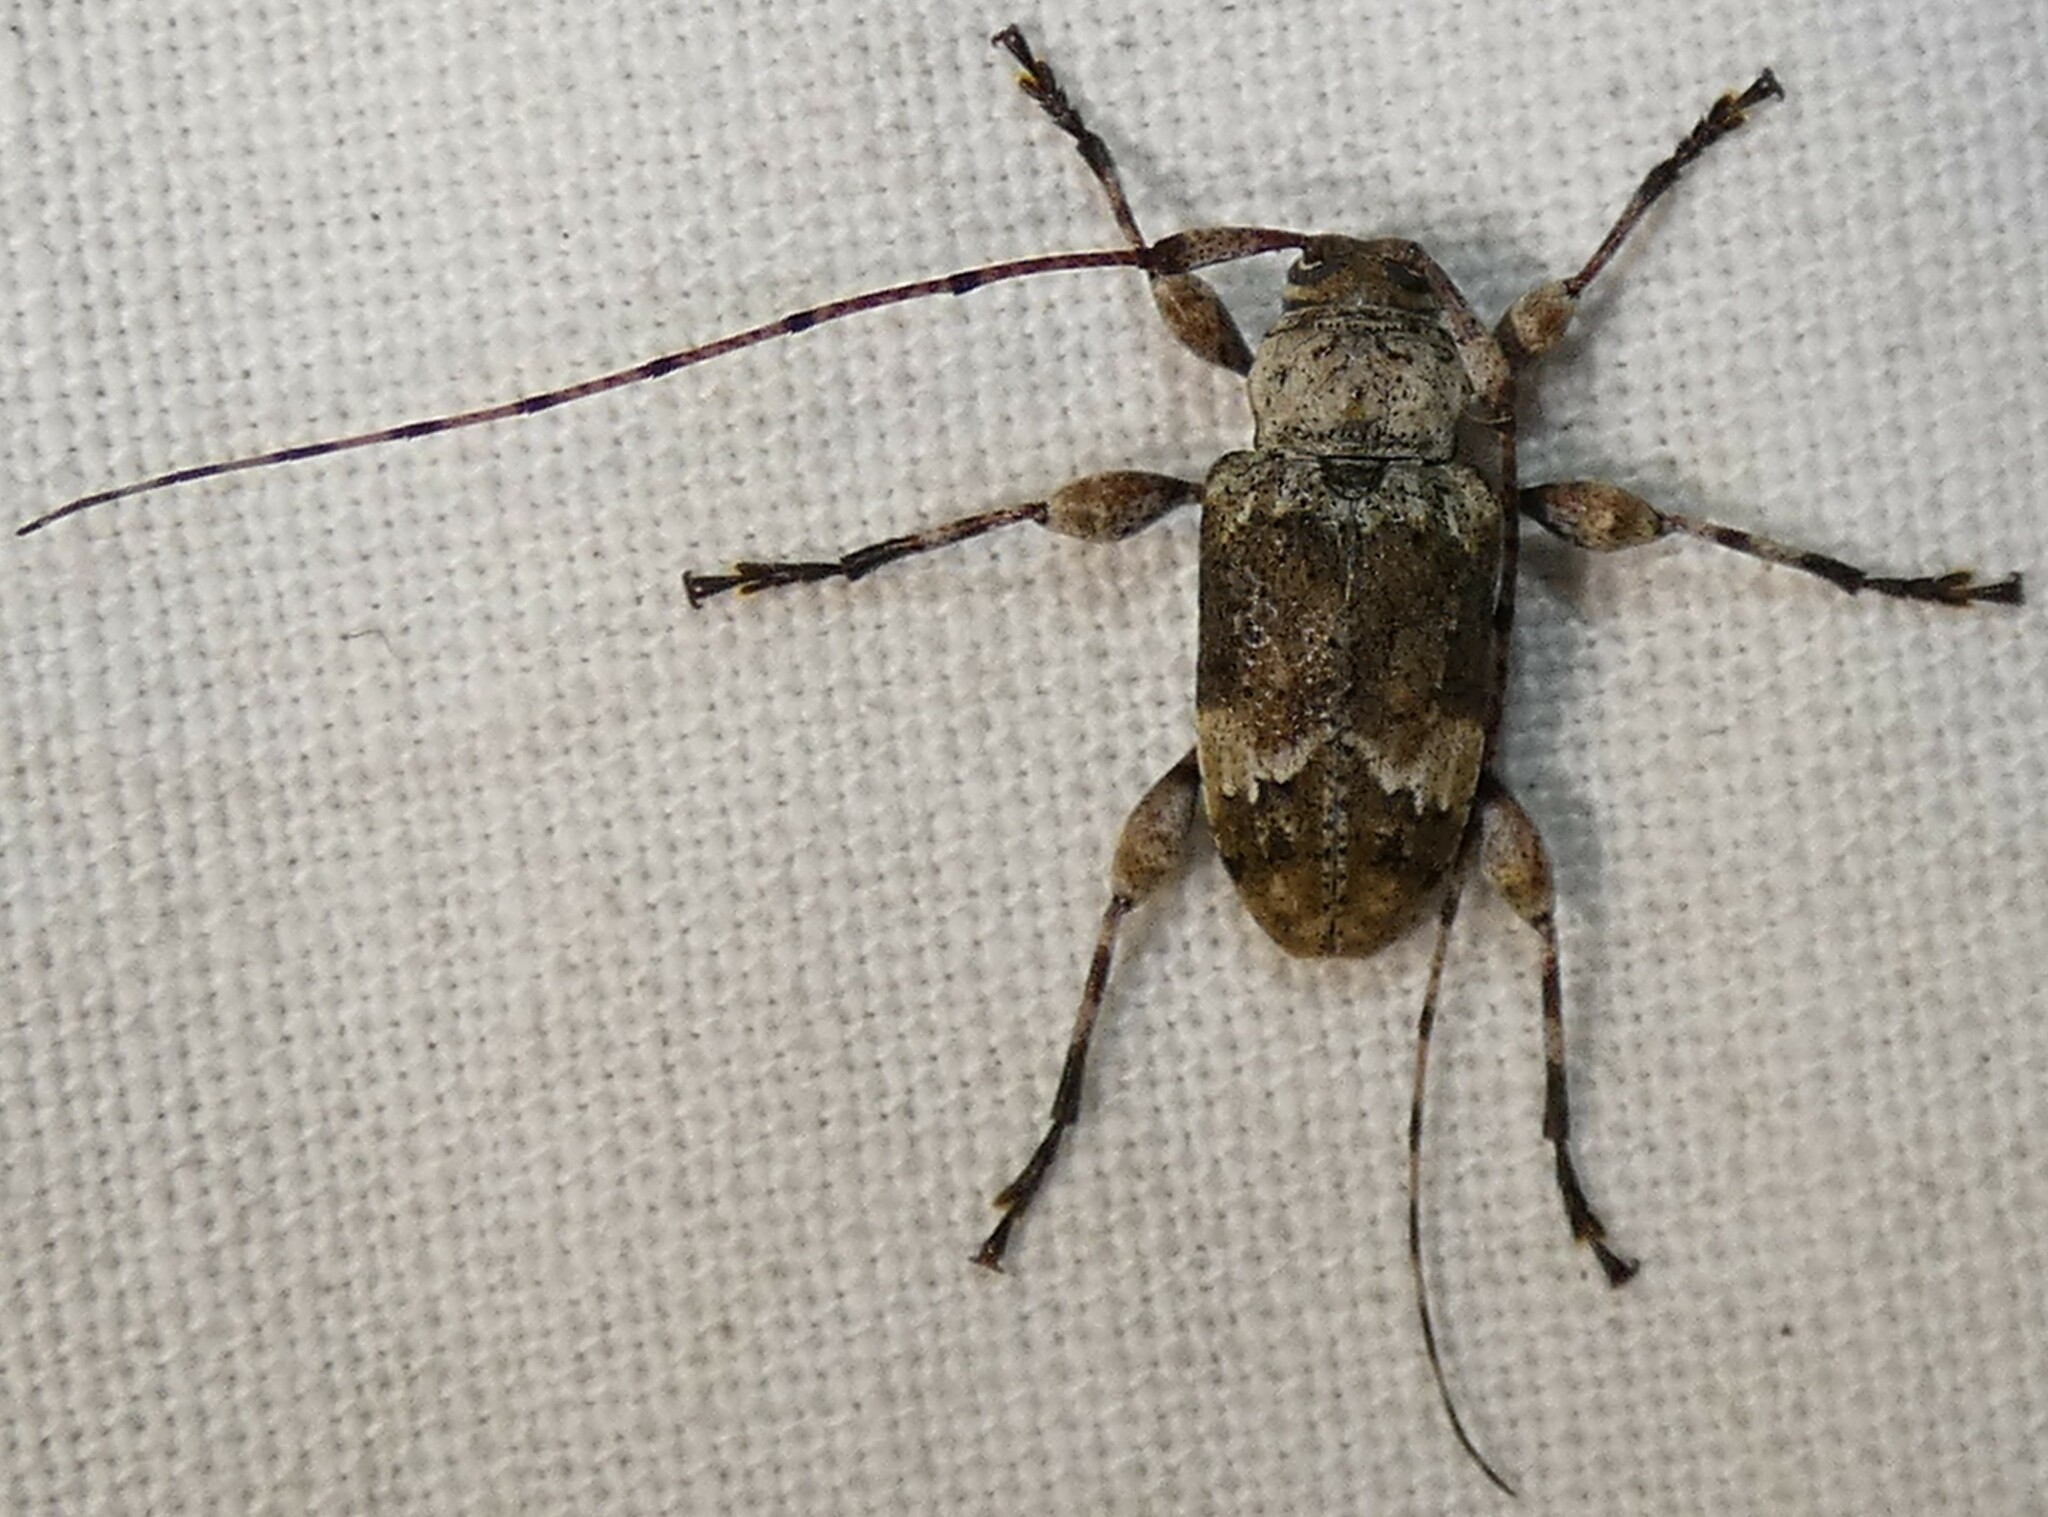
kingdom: Animalia
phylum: Arthropoda
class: Insecta
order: Coleoptera
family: Cerambycidae
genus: Leptostylopsis
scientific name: Leptostylopsis planidorsus
